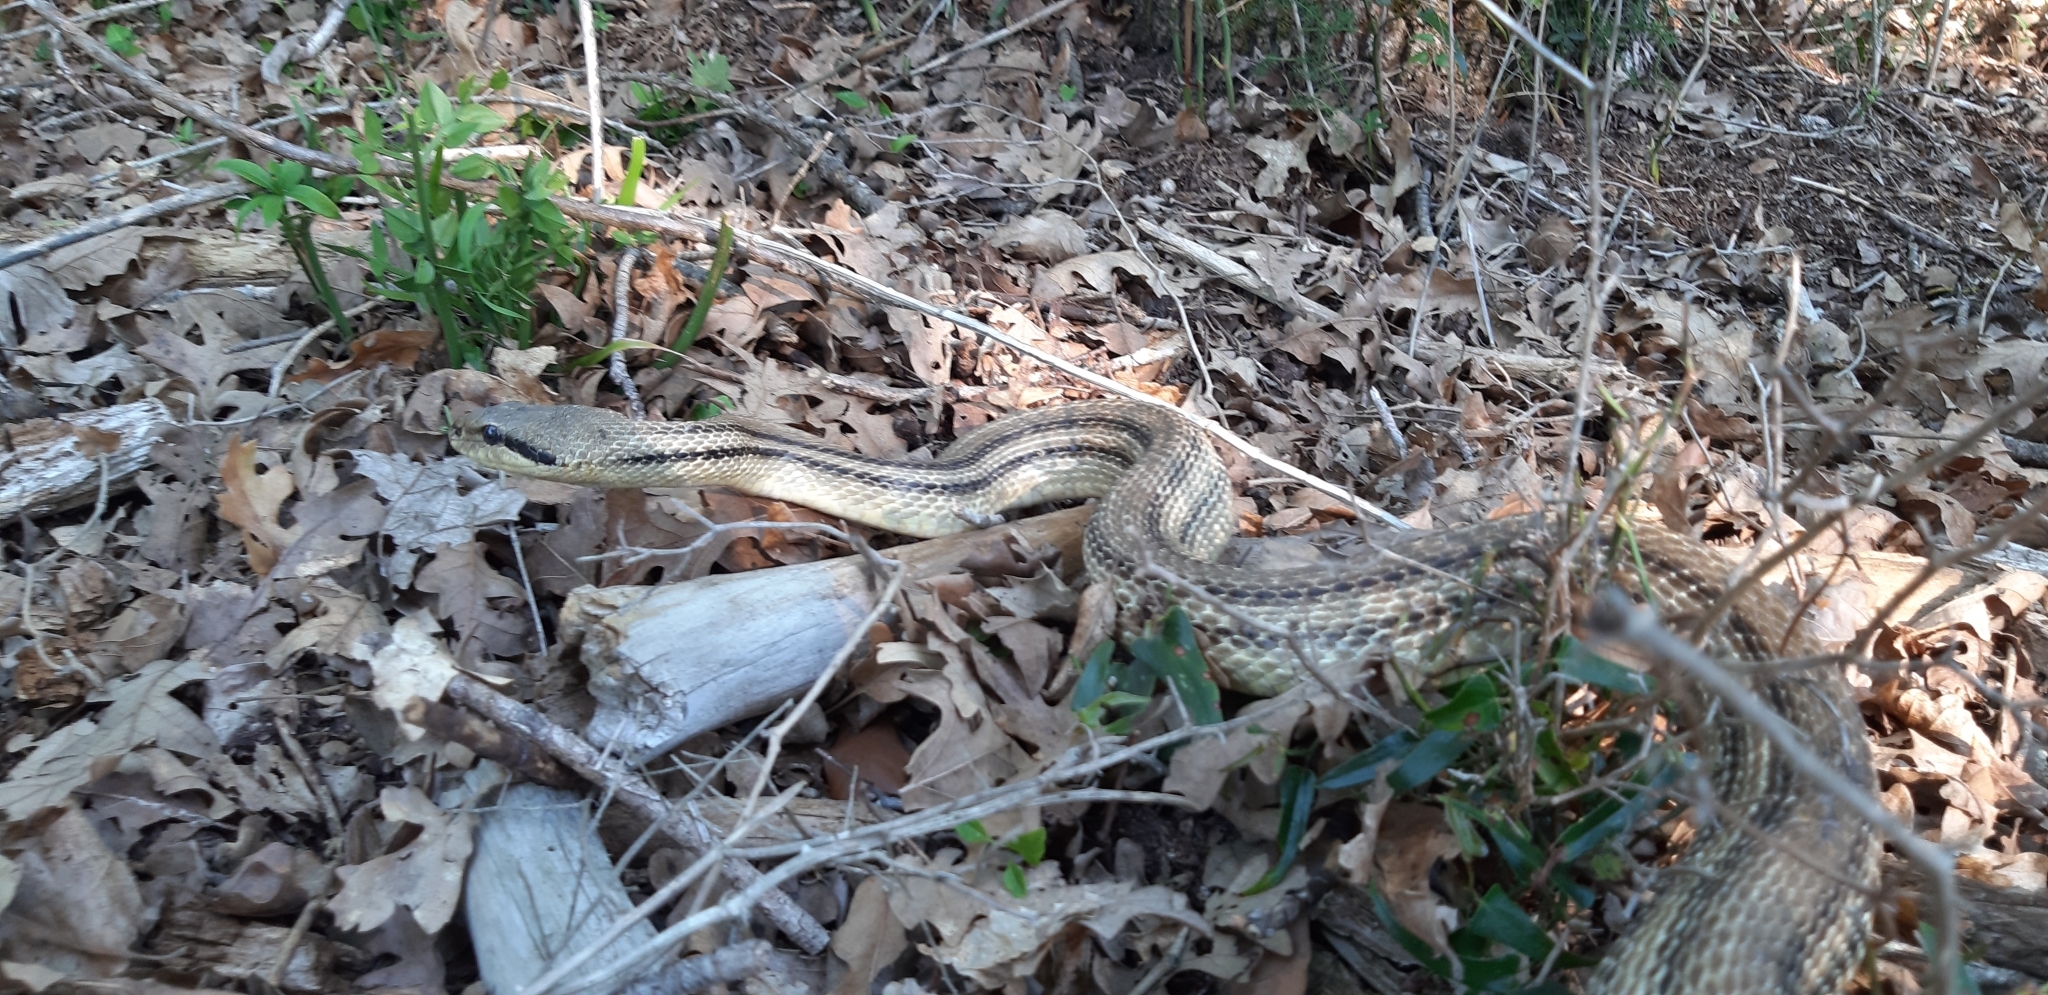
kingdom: Animalia
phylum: Chordata
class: Squamata
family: Colubridae
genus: Elaphe
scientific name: Elaphe quatuorlineata
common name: Four-lined snake
